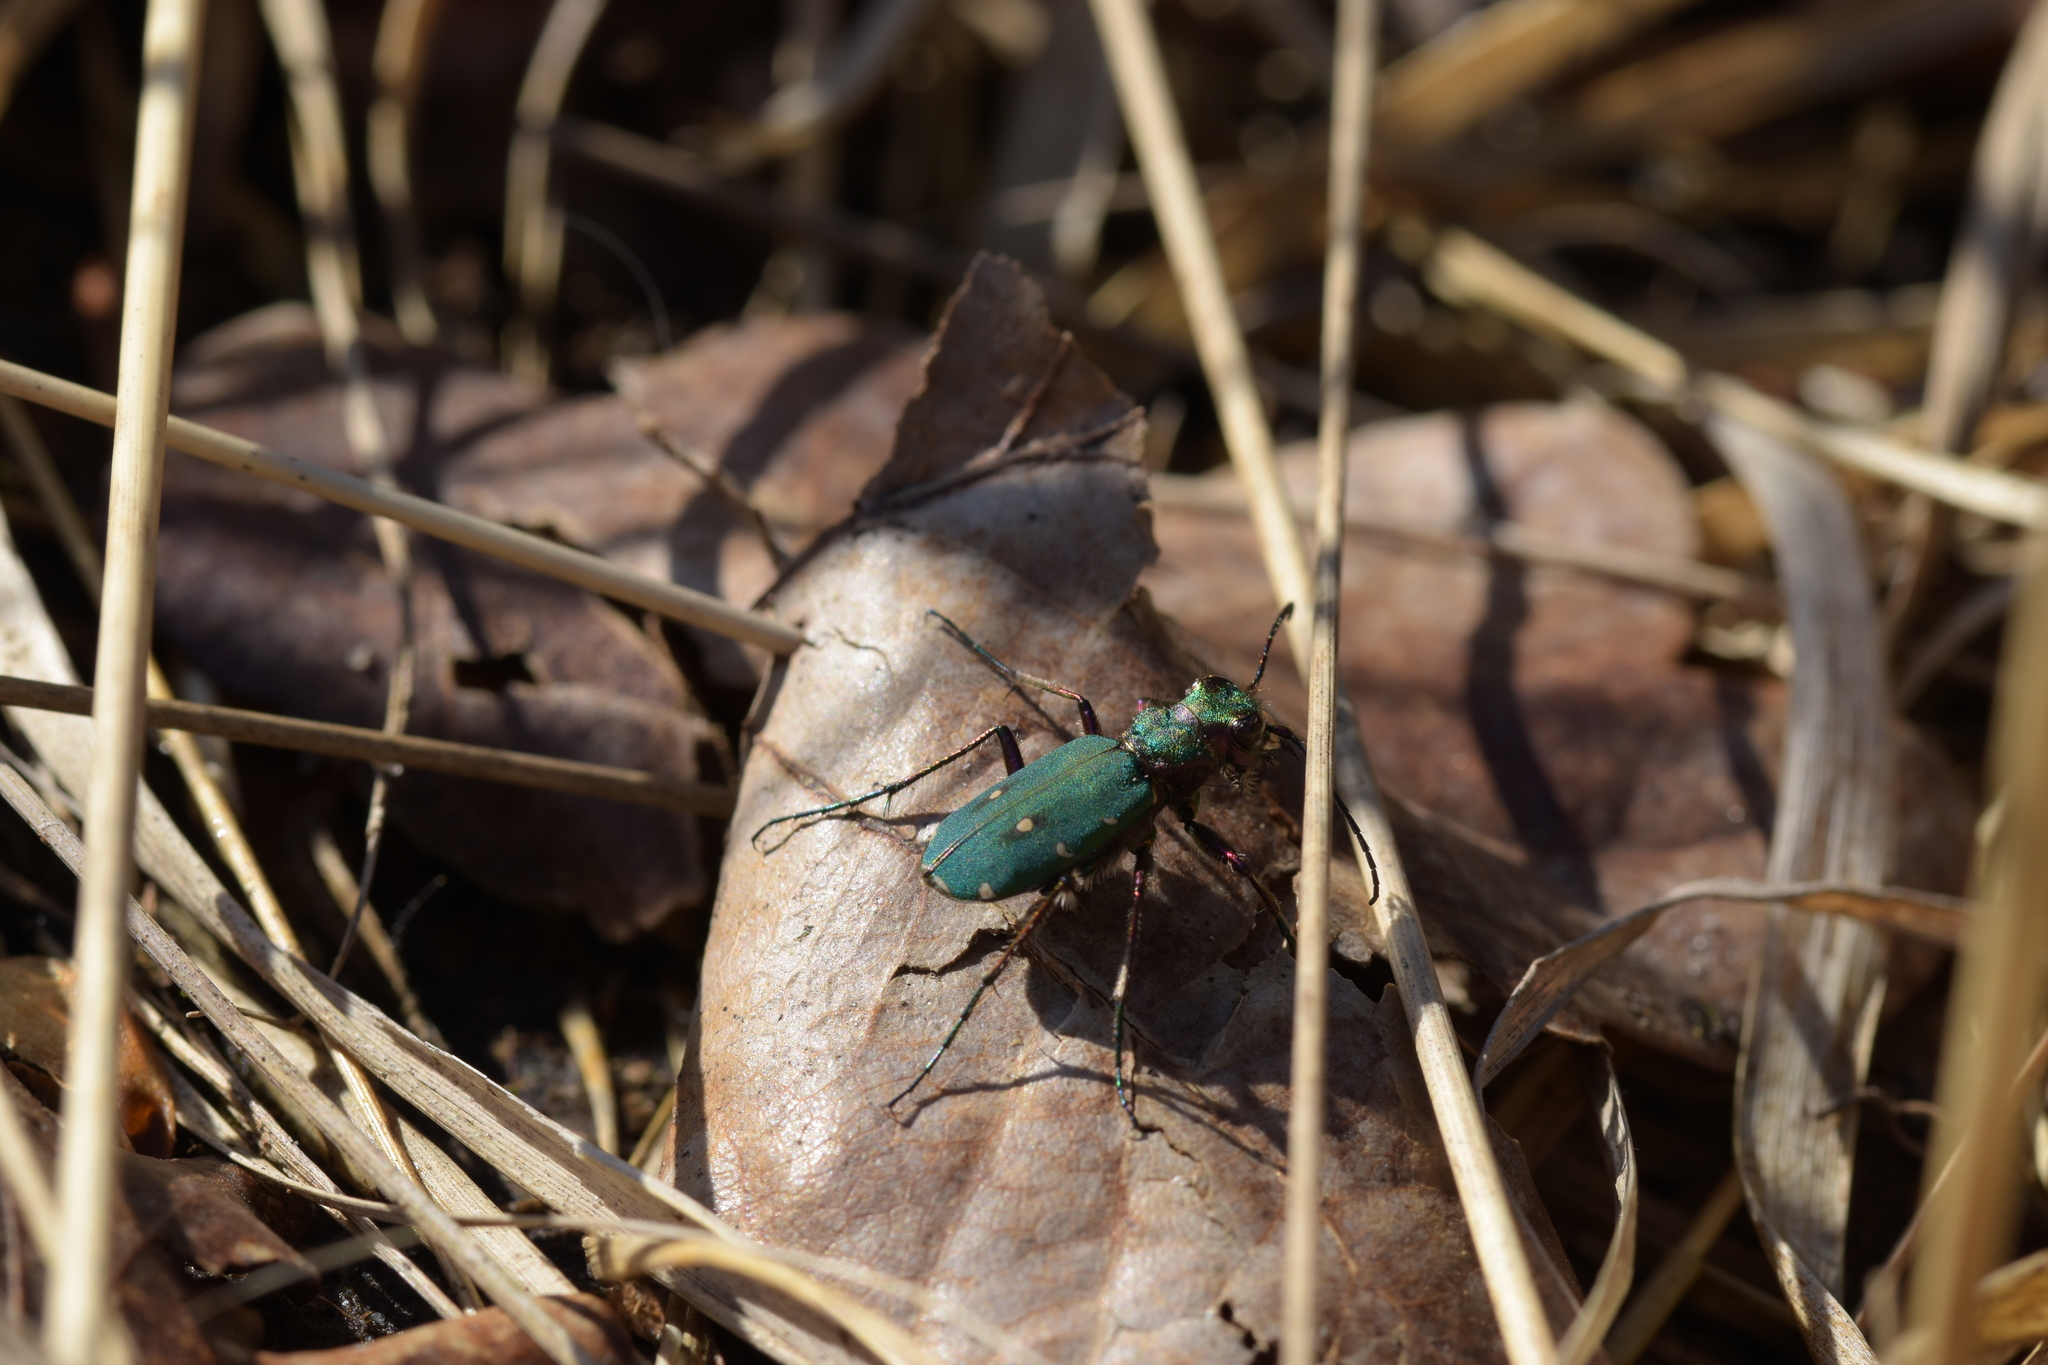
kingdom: Animalia
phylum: Arthropoda
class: Insecta
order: Coleoptera
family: Carabidae
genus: Cicindela
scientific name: Cicindela campestris
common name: Common tiger beetle
